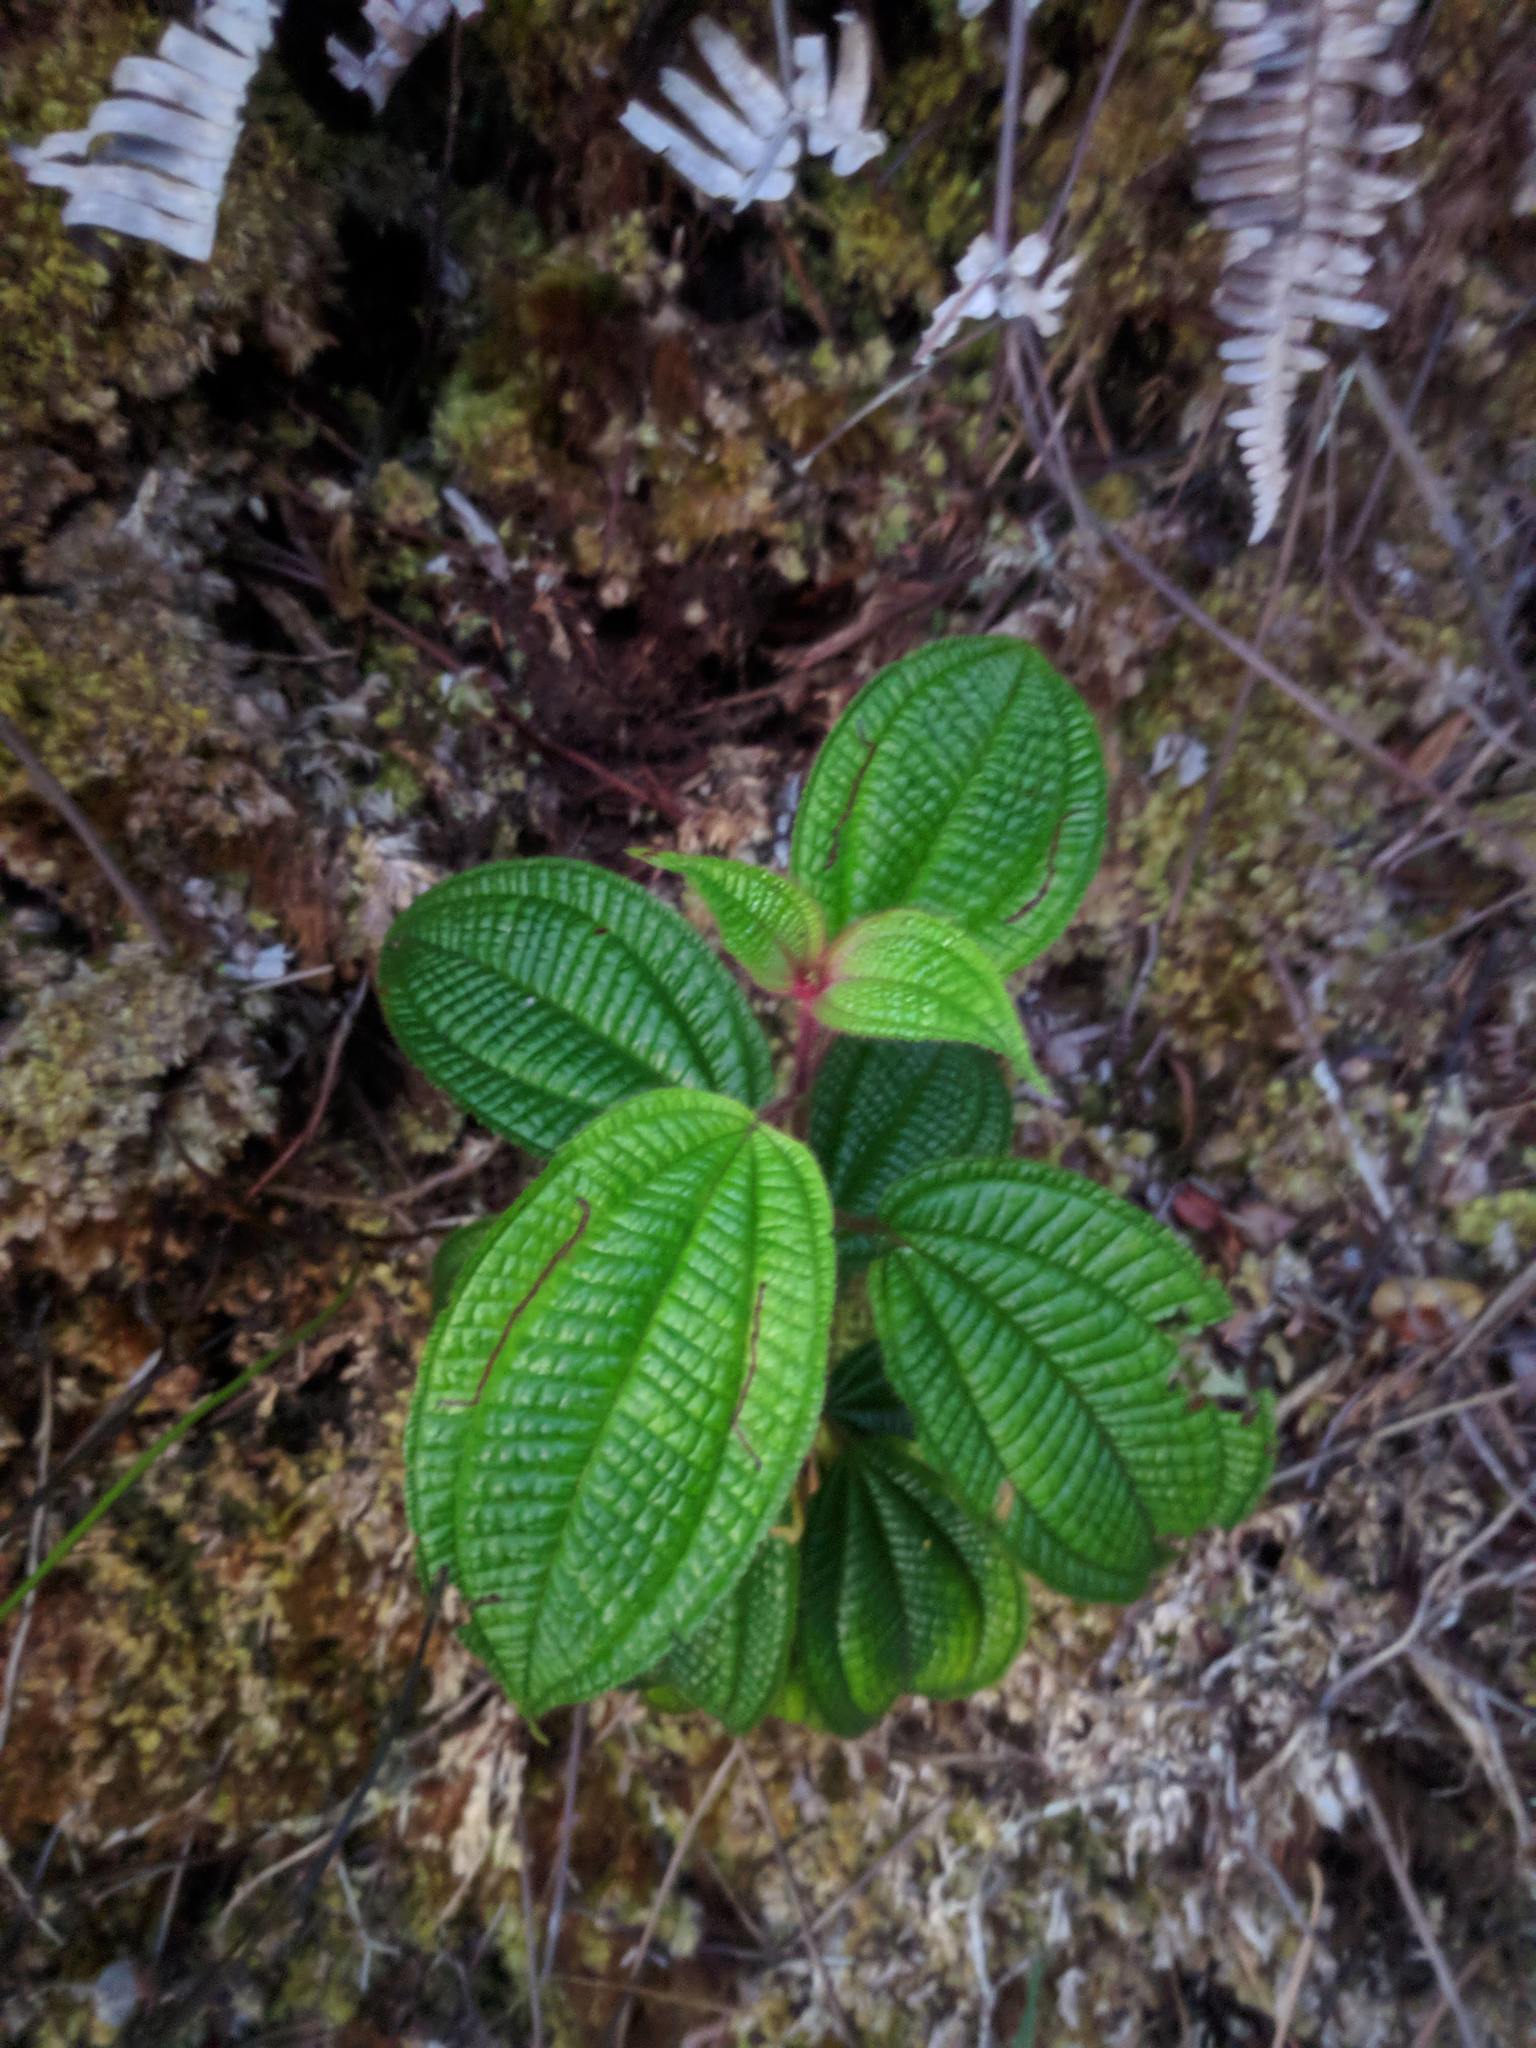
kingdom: Plantae
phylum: Tracheophyta
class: Magnoliopsida
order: Myrtales
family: Melastomataceae
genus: Miconia
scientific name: Miconia crenata
